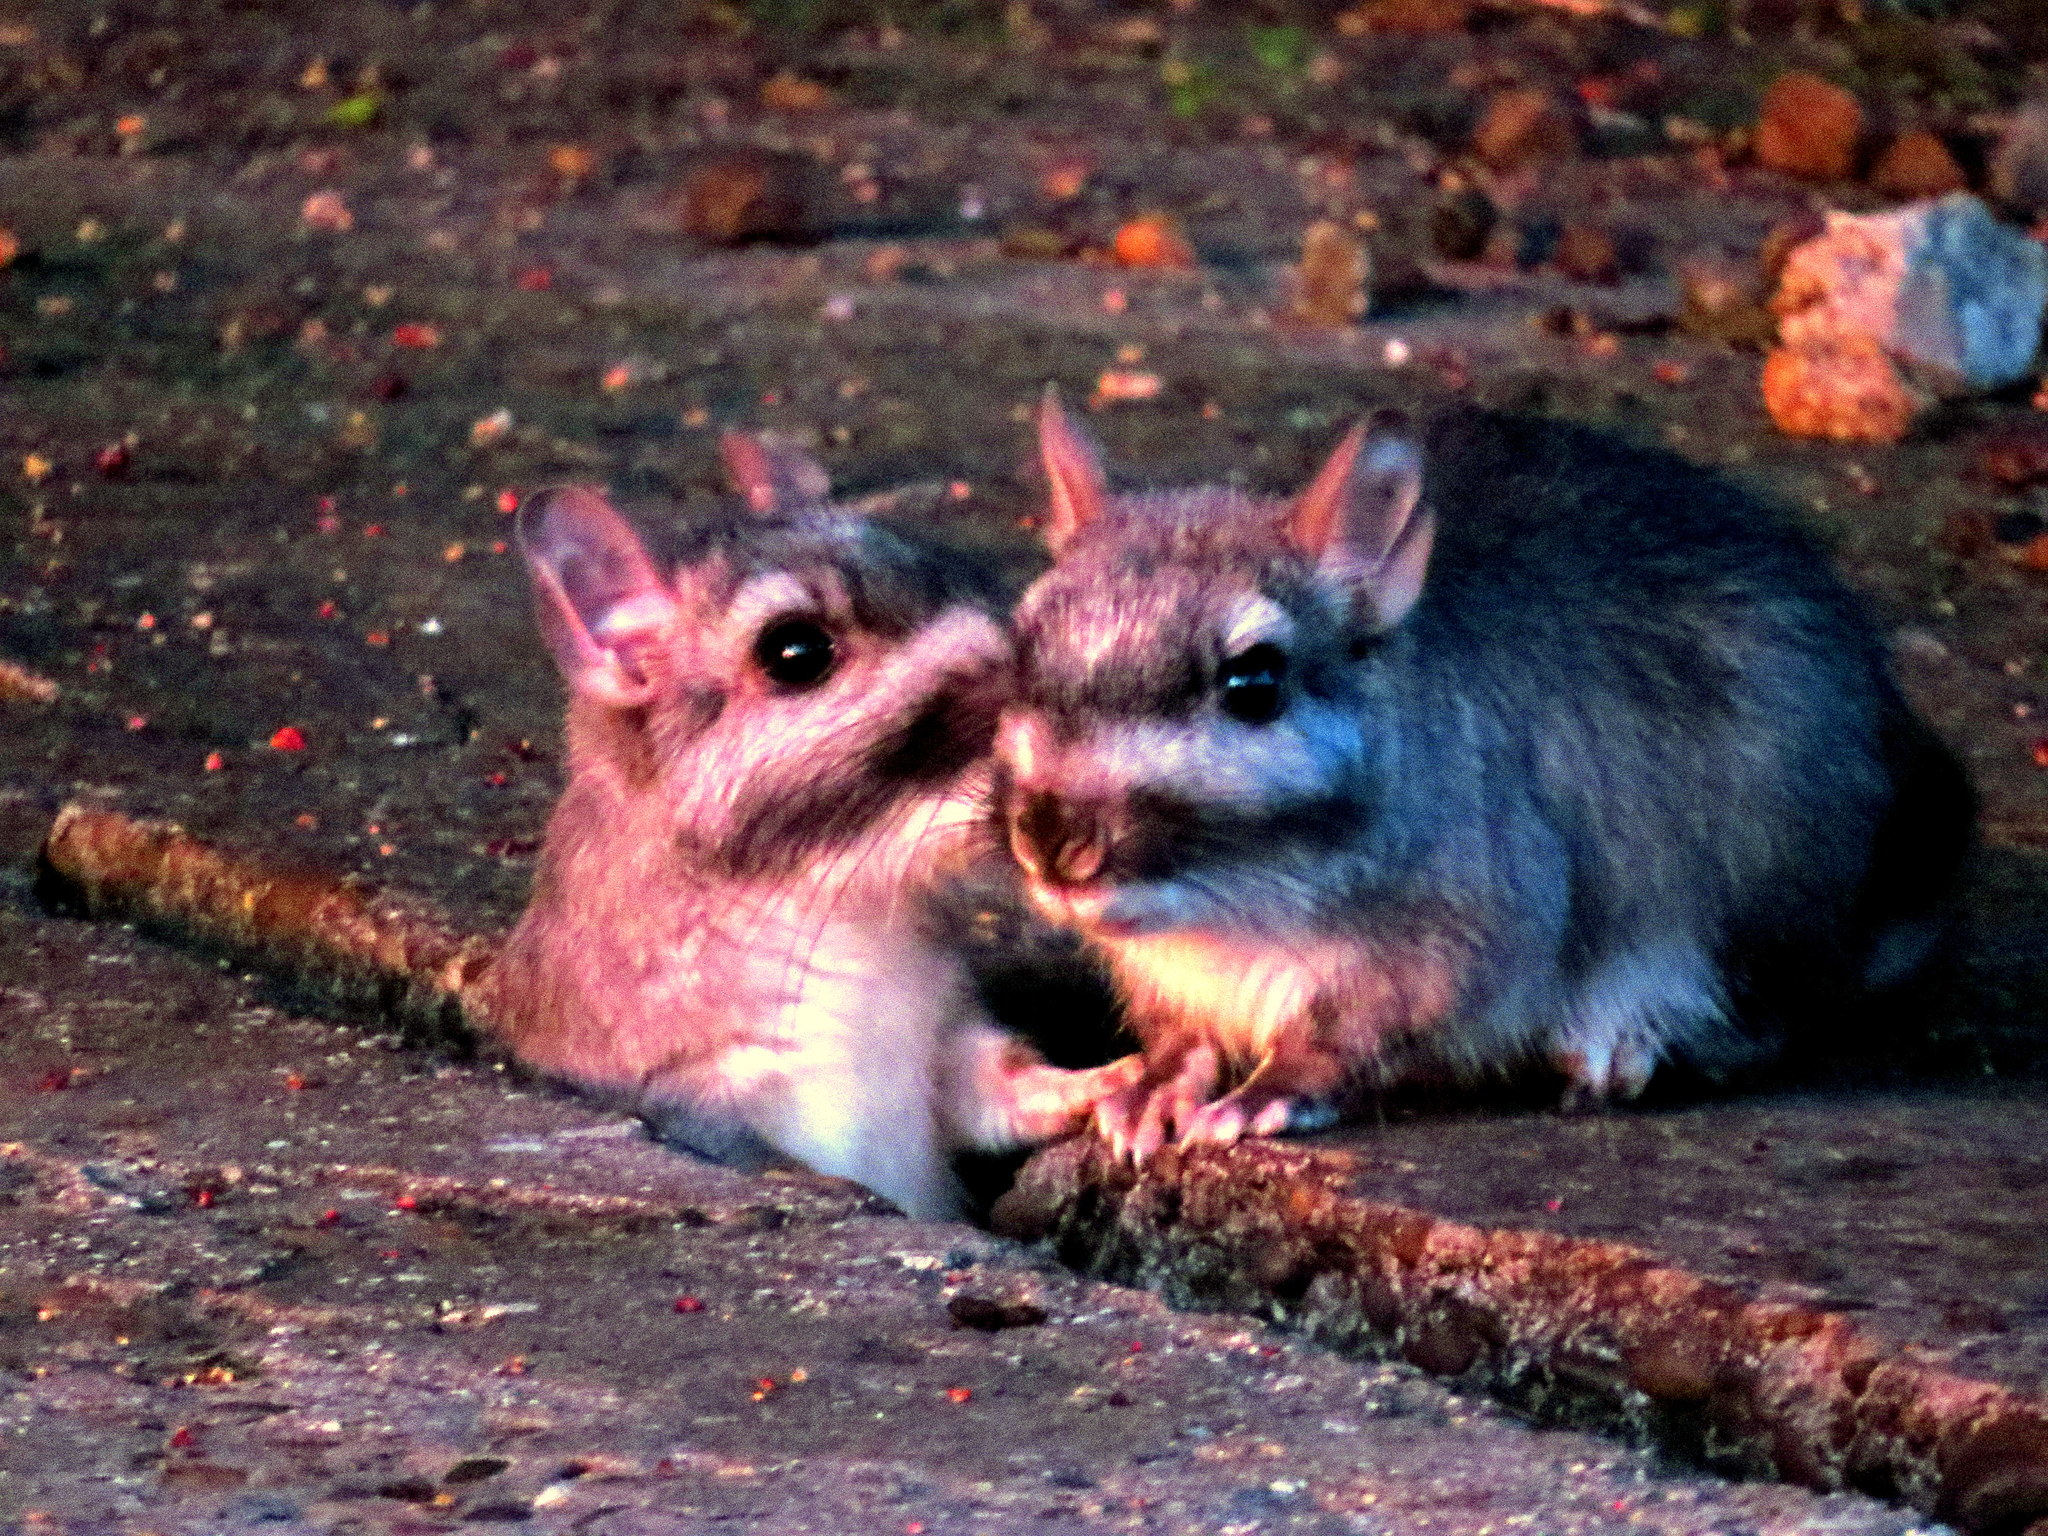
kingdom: Animalia
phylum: Chordata
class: Mammalia
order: Rodentia
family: Chinchillidae
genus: Lagostomus
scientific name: Lagostomus maximus
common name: Plains viscacha
